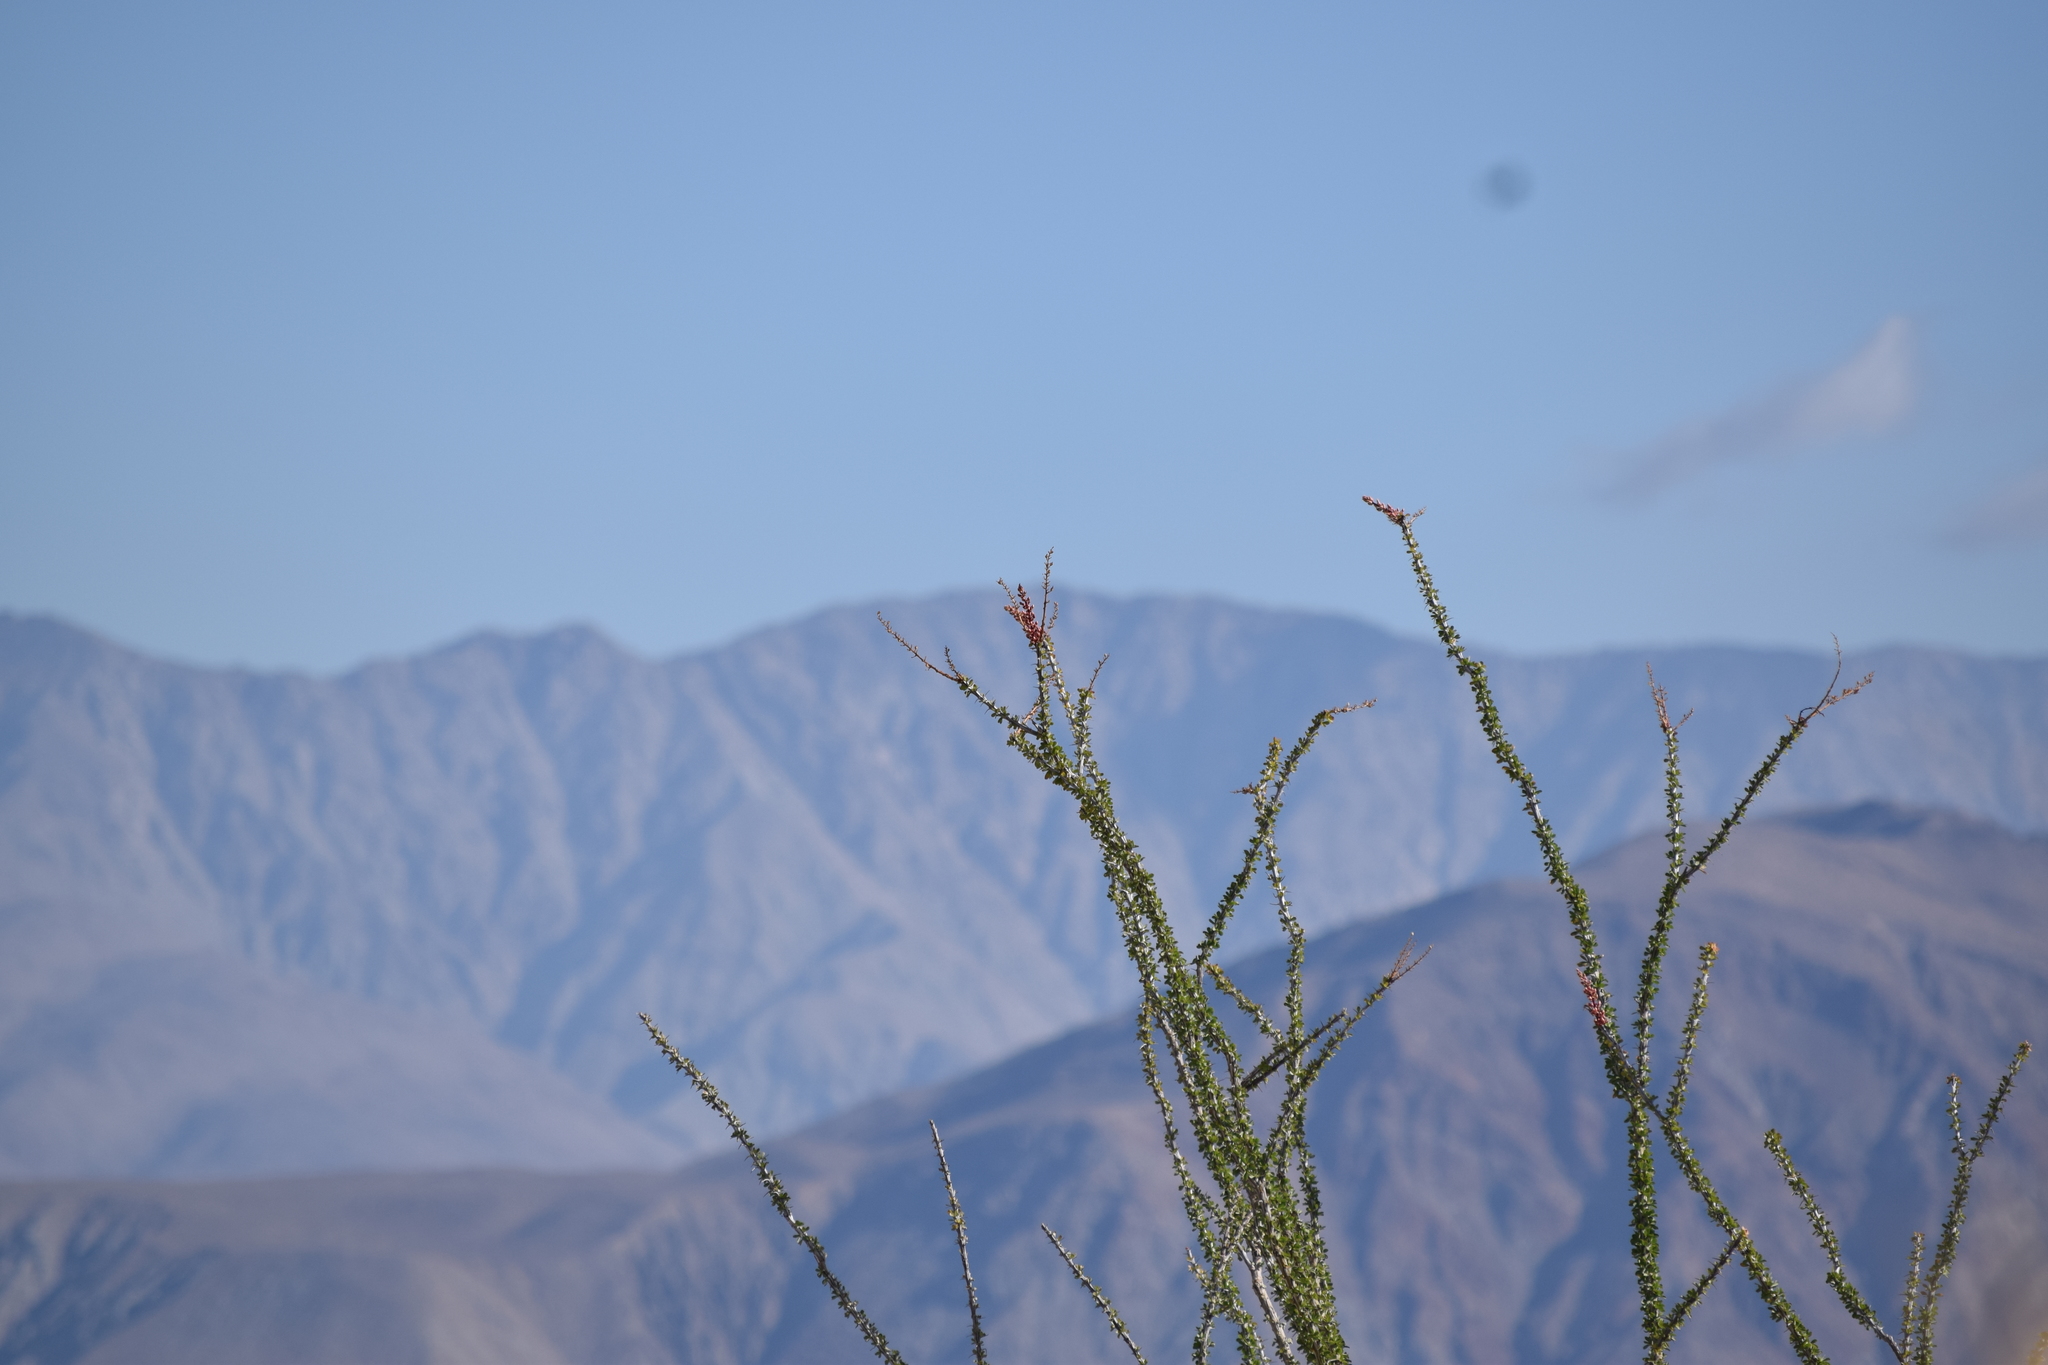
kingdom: Plantae
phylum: Tracheophyta
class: Magnoliopsida
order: Ericales
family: Fouquieriaceae
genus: Fouquieria
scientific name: Fouquieria splendens
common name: Vine-cactus
